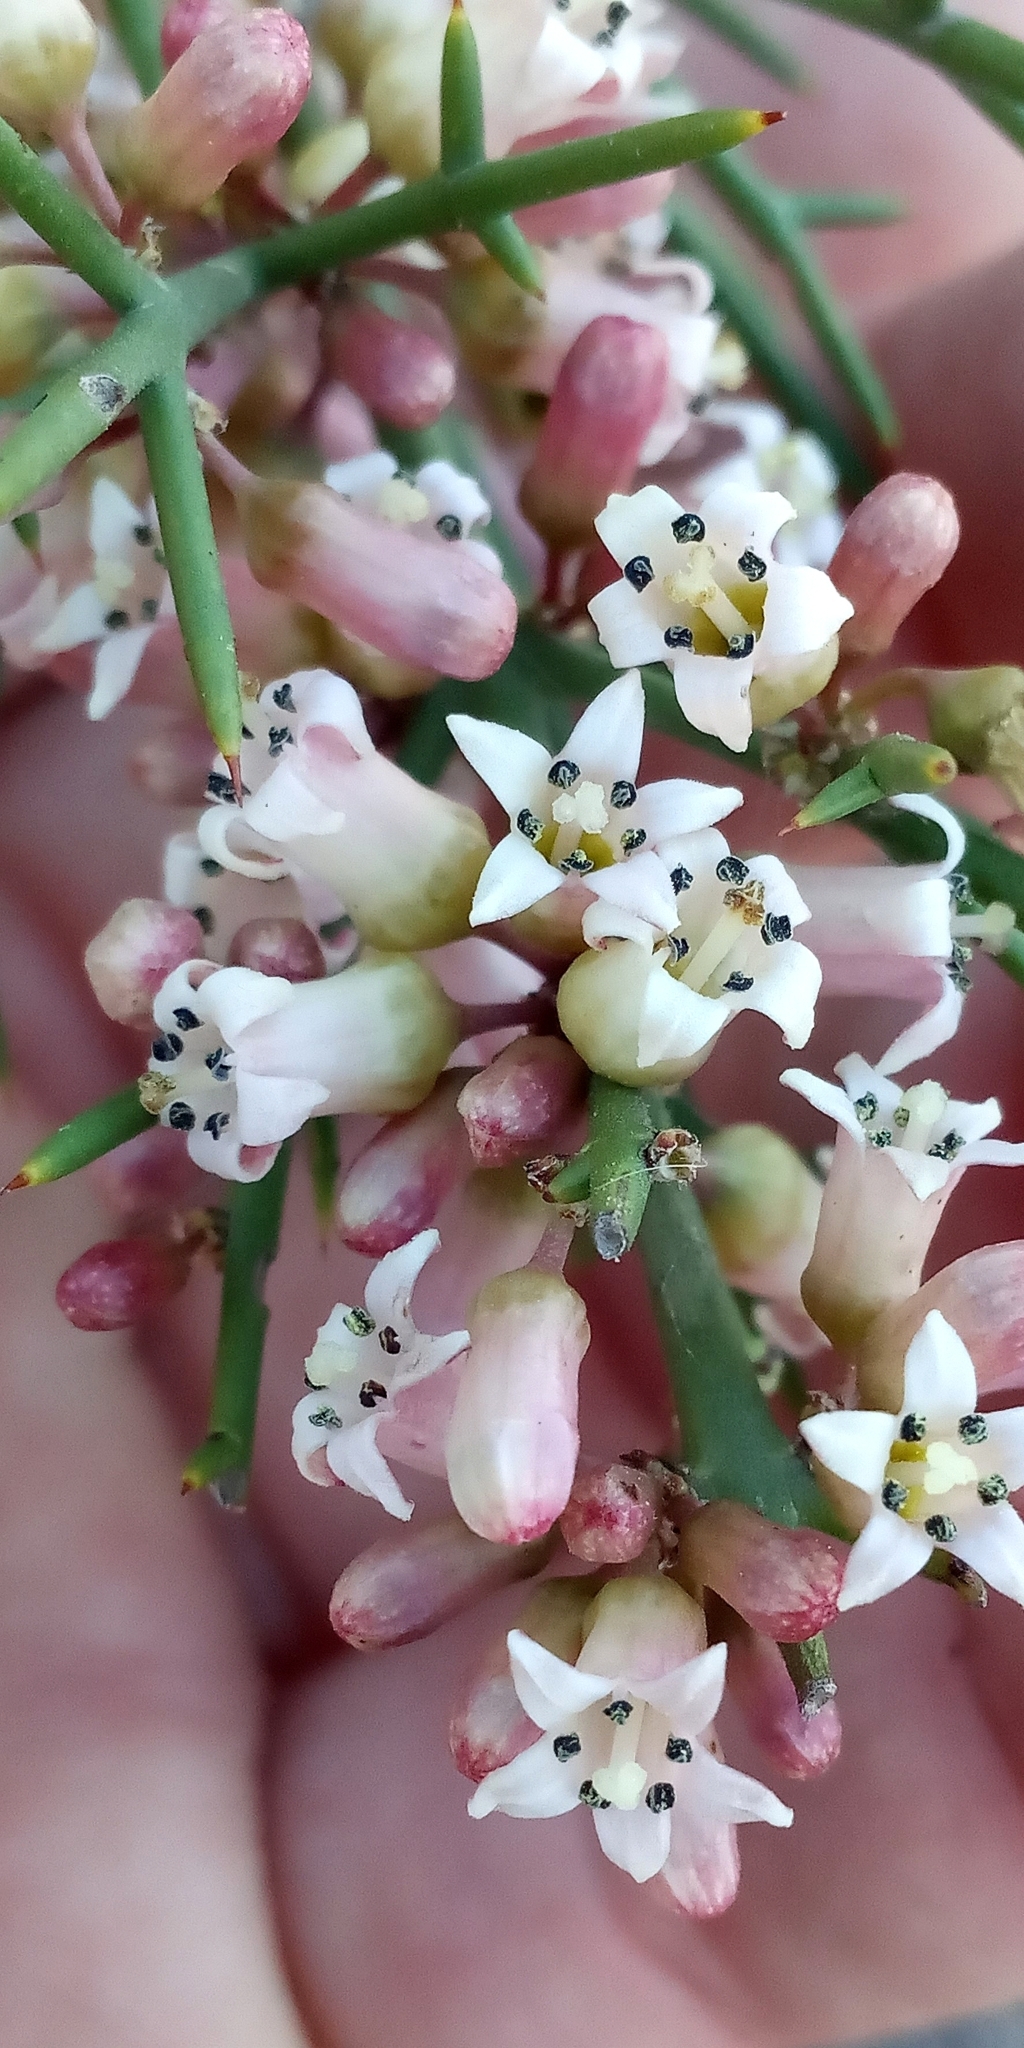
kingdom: Plantae
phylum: Tracheophyta
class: Magnoliopsida
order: Rosales
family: Rhamnaceae
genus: Colletia
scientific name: Colletia spinosissima
